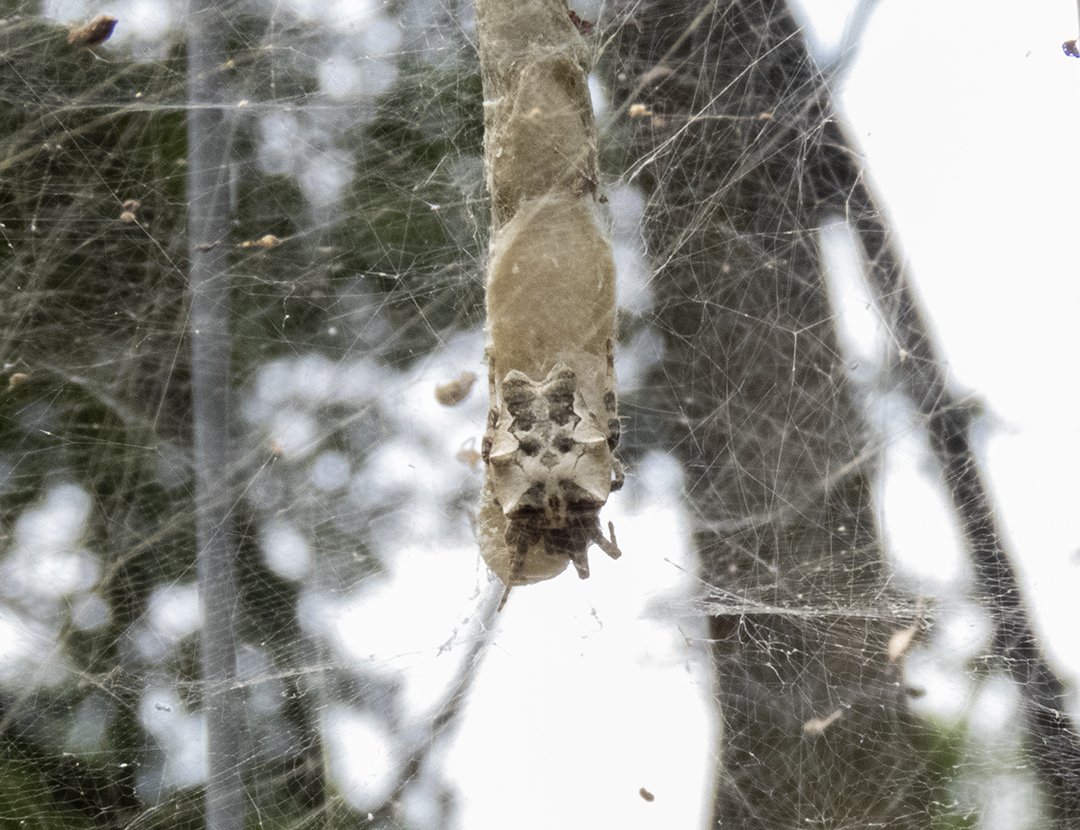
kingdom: Animalia
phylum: Arthropoda
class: Arachnida
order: Araneae
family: Araneidae
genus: Cyrtophora
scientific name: Cyrtophora citricola
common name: Orb weavers
